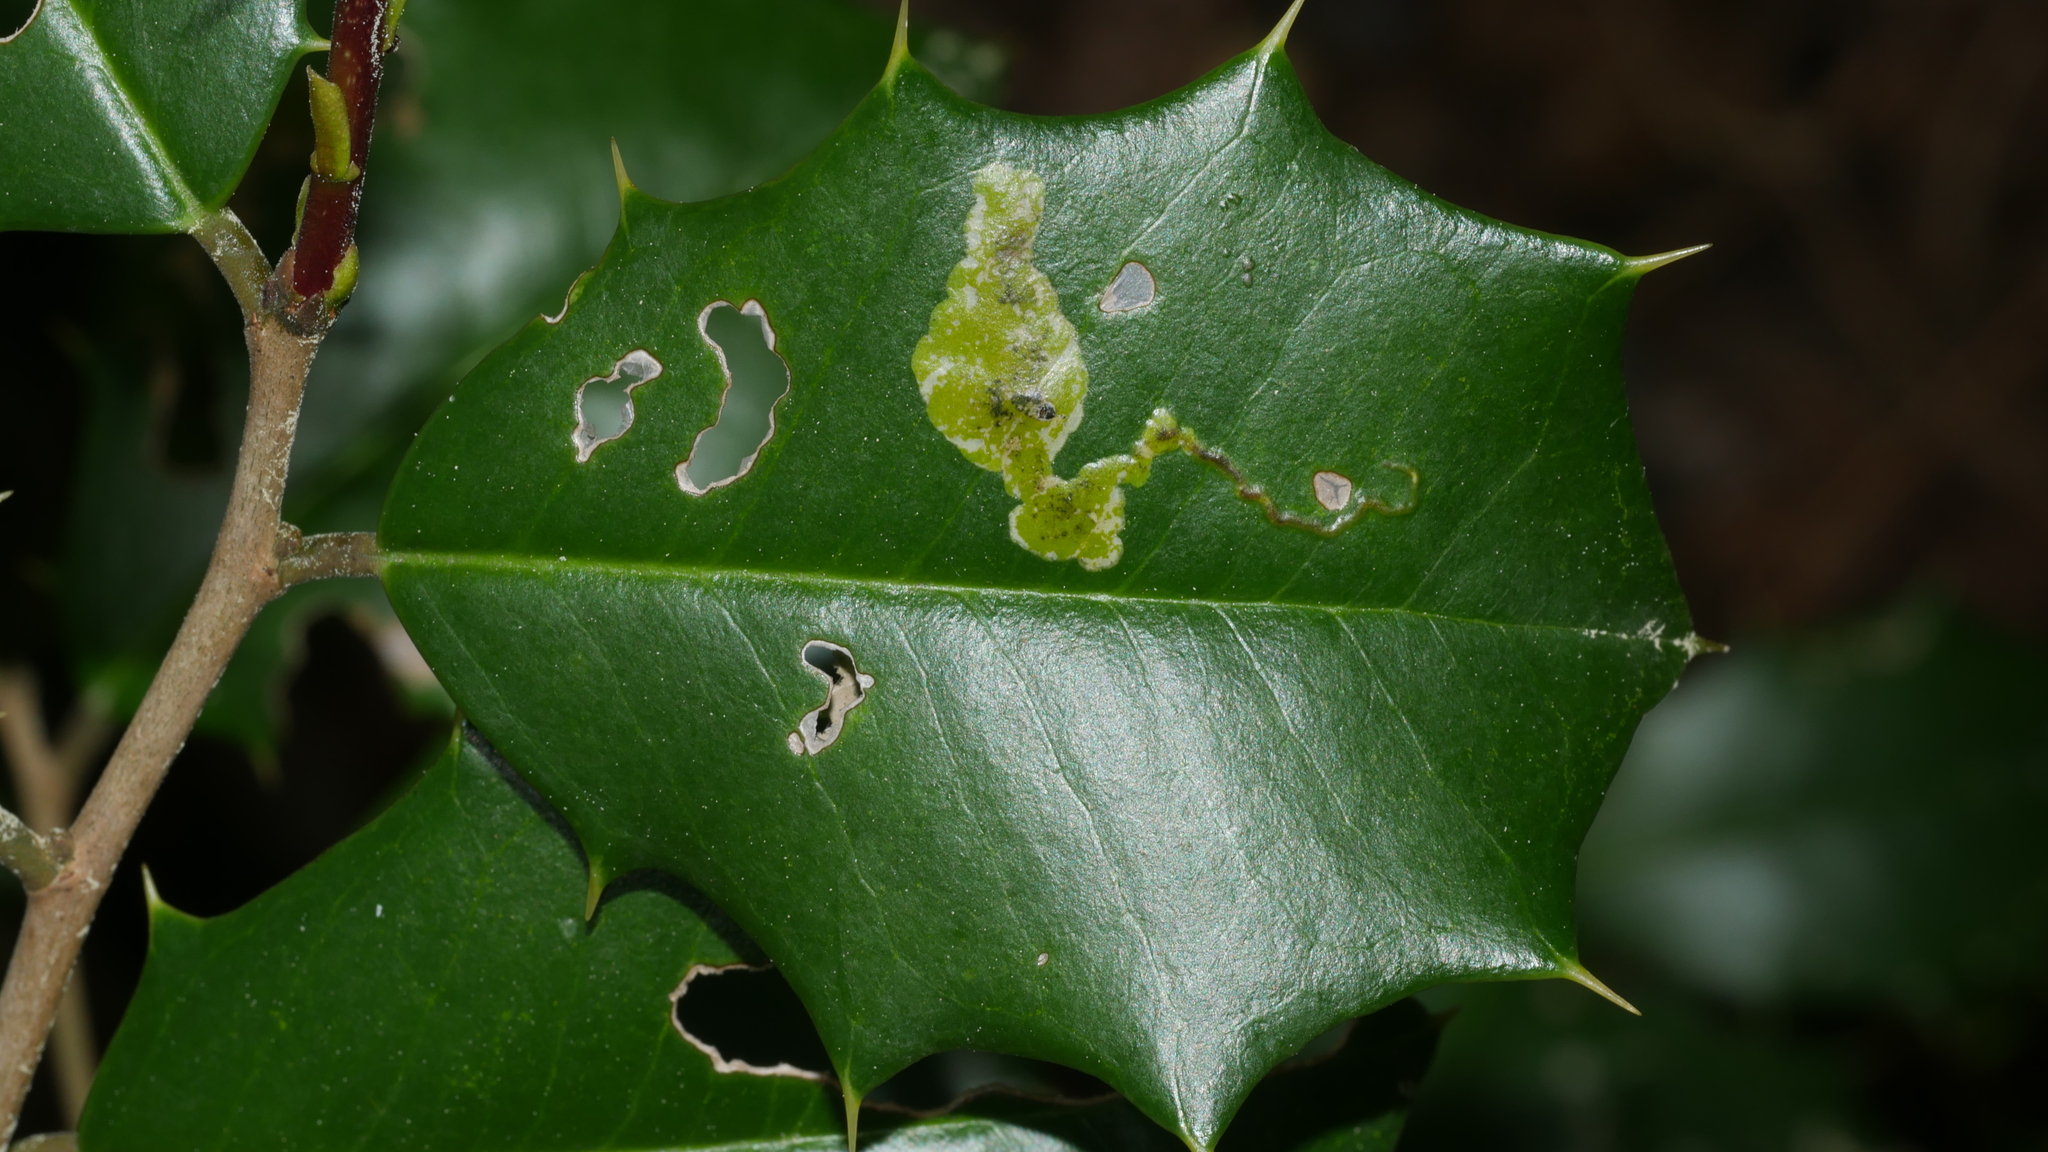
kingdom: Animalia
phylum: Arthropoda
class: Insecta
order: Diptera
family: Agromyzidae
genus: Phytomyza
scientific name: Phytomyza ilicicola
